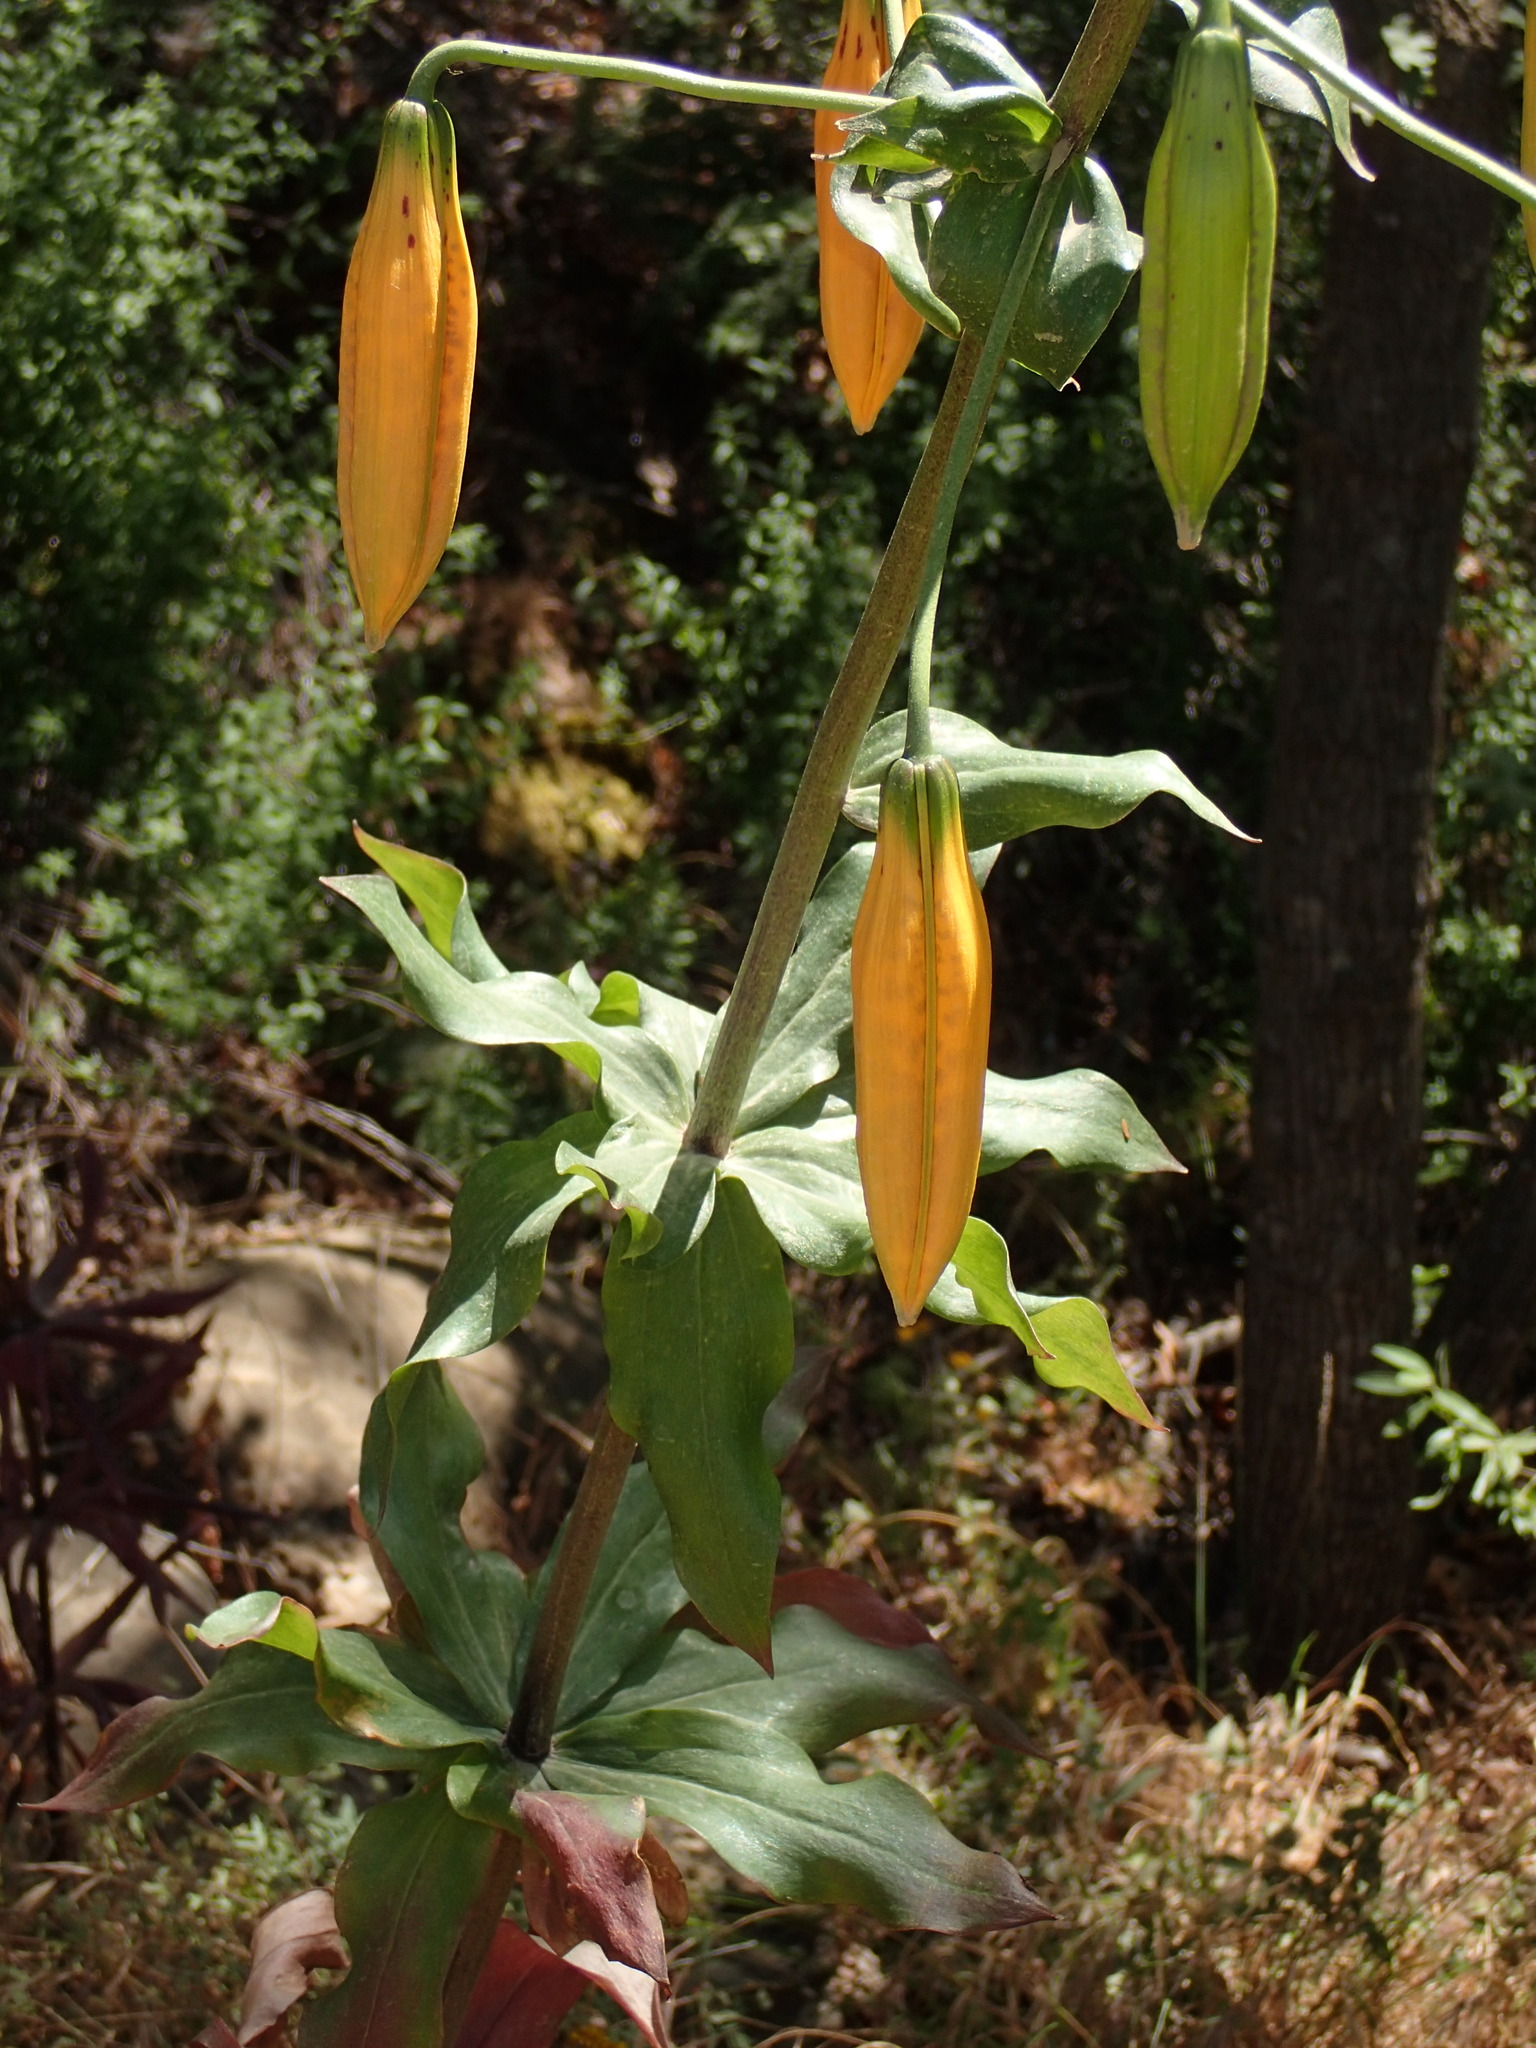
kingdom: Plantae
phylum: Tracheophyta
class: Liliopsida
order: Liliales
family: Liliaceae
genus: Lilium
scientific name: Lilium humboldtii
